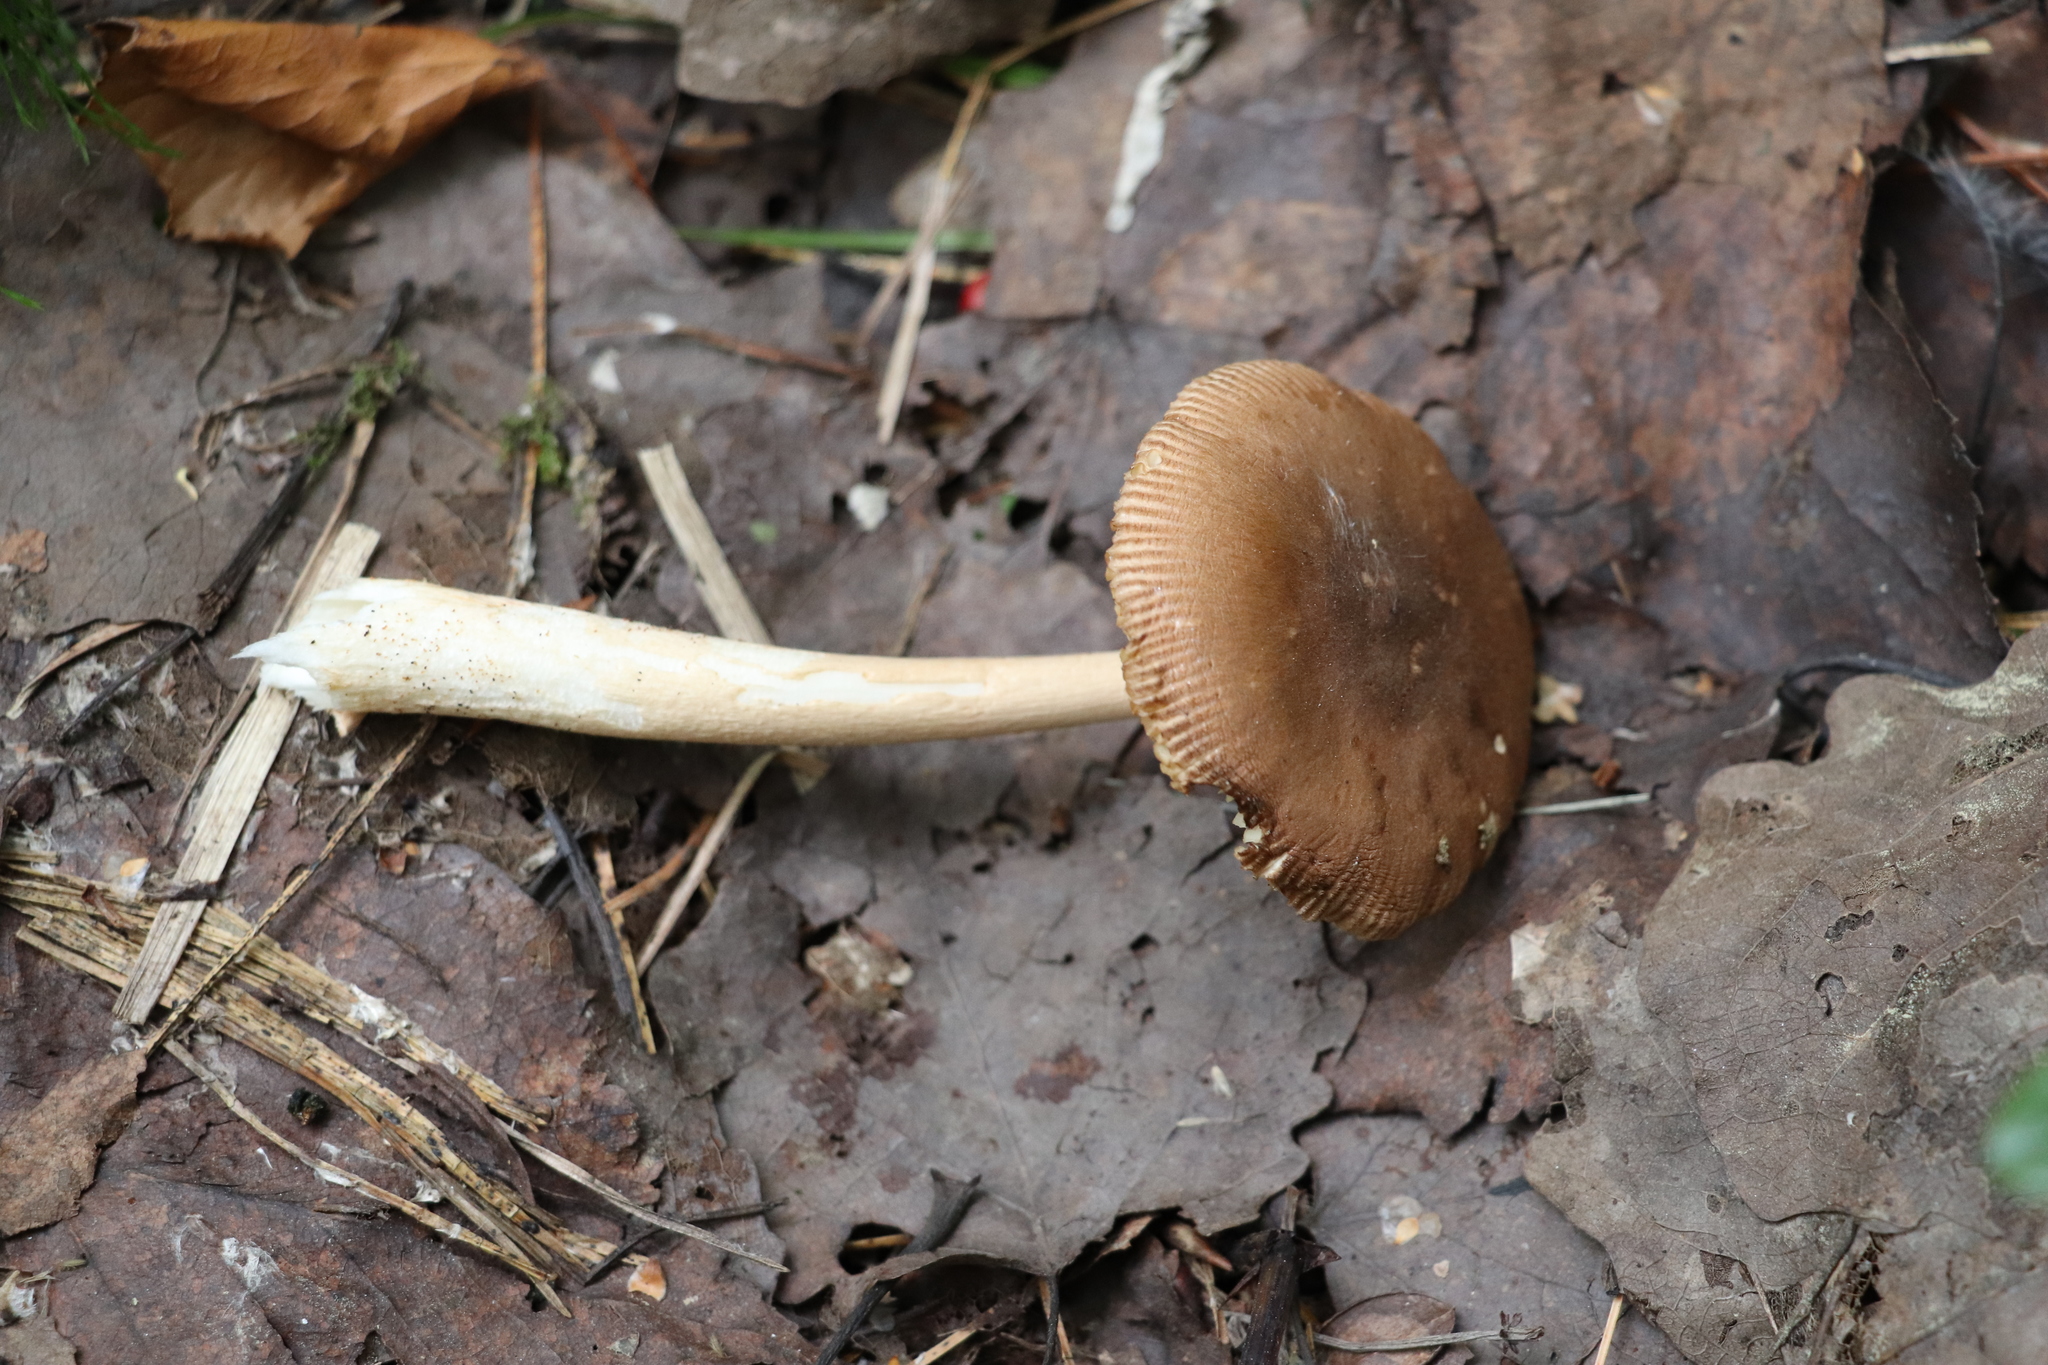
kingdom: Fungi
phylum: Basidiomycota
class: Agaricomycetes
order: Agaricales
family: Amanitaceae
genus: Amanita
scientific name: Amanita fulva
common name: Tawny grisette
